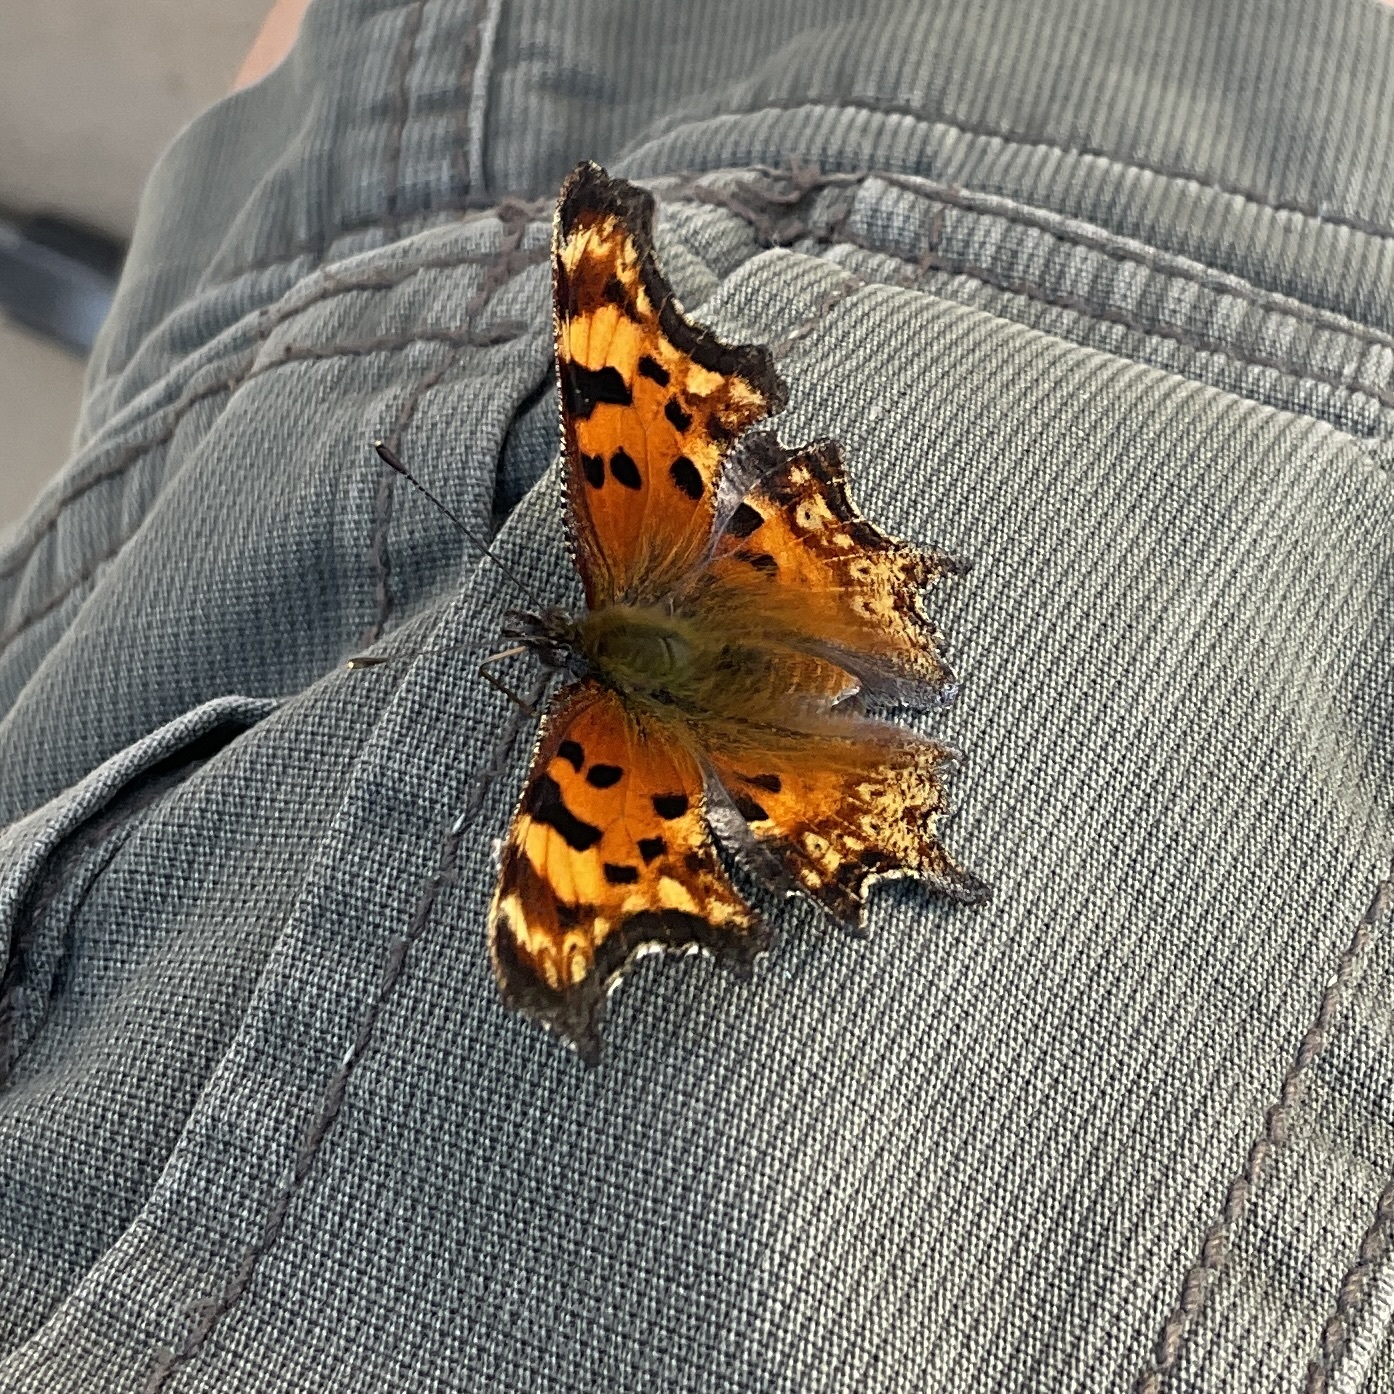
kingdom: Animalia
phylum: Arthropoda
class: Insecta
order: Lepidoptera
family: Nymphalidae
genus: Polygonia
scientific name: Polygonia gracilis
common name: Hoary comma
